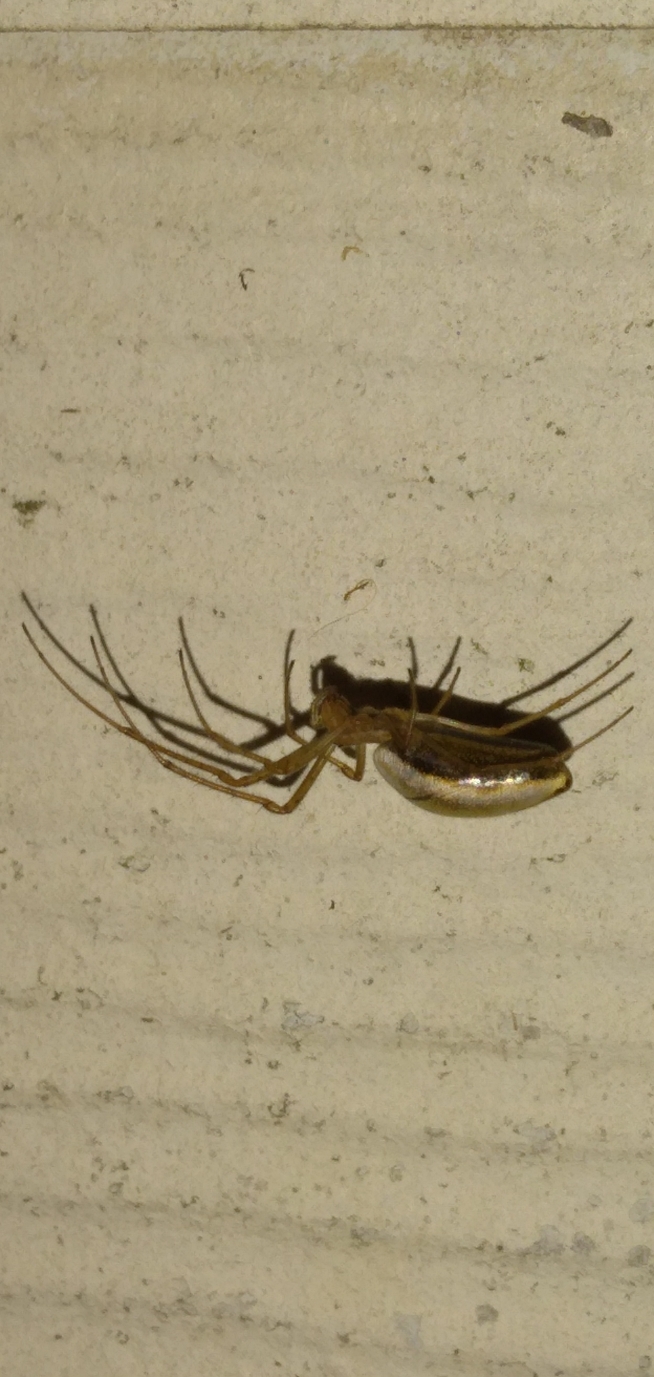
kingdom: Animalia
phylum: Arthropoda
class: Arachnida
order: Araneae
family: Tetragnathidae
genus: Tetragnatha
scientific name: Tetragnatha extensa
